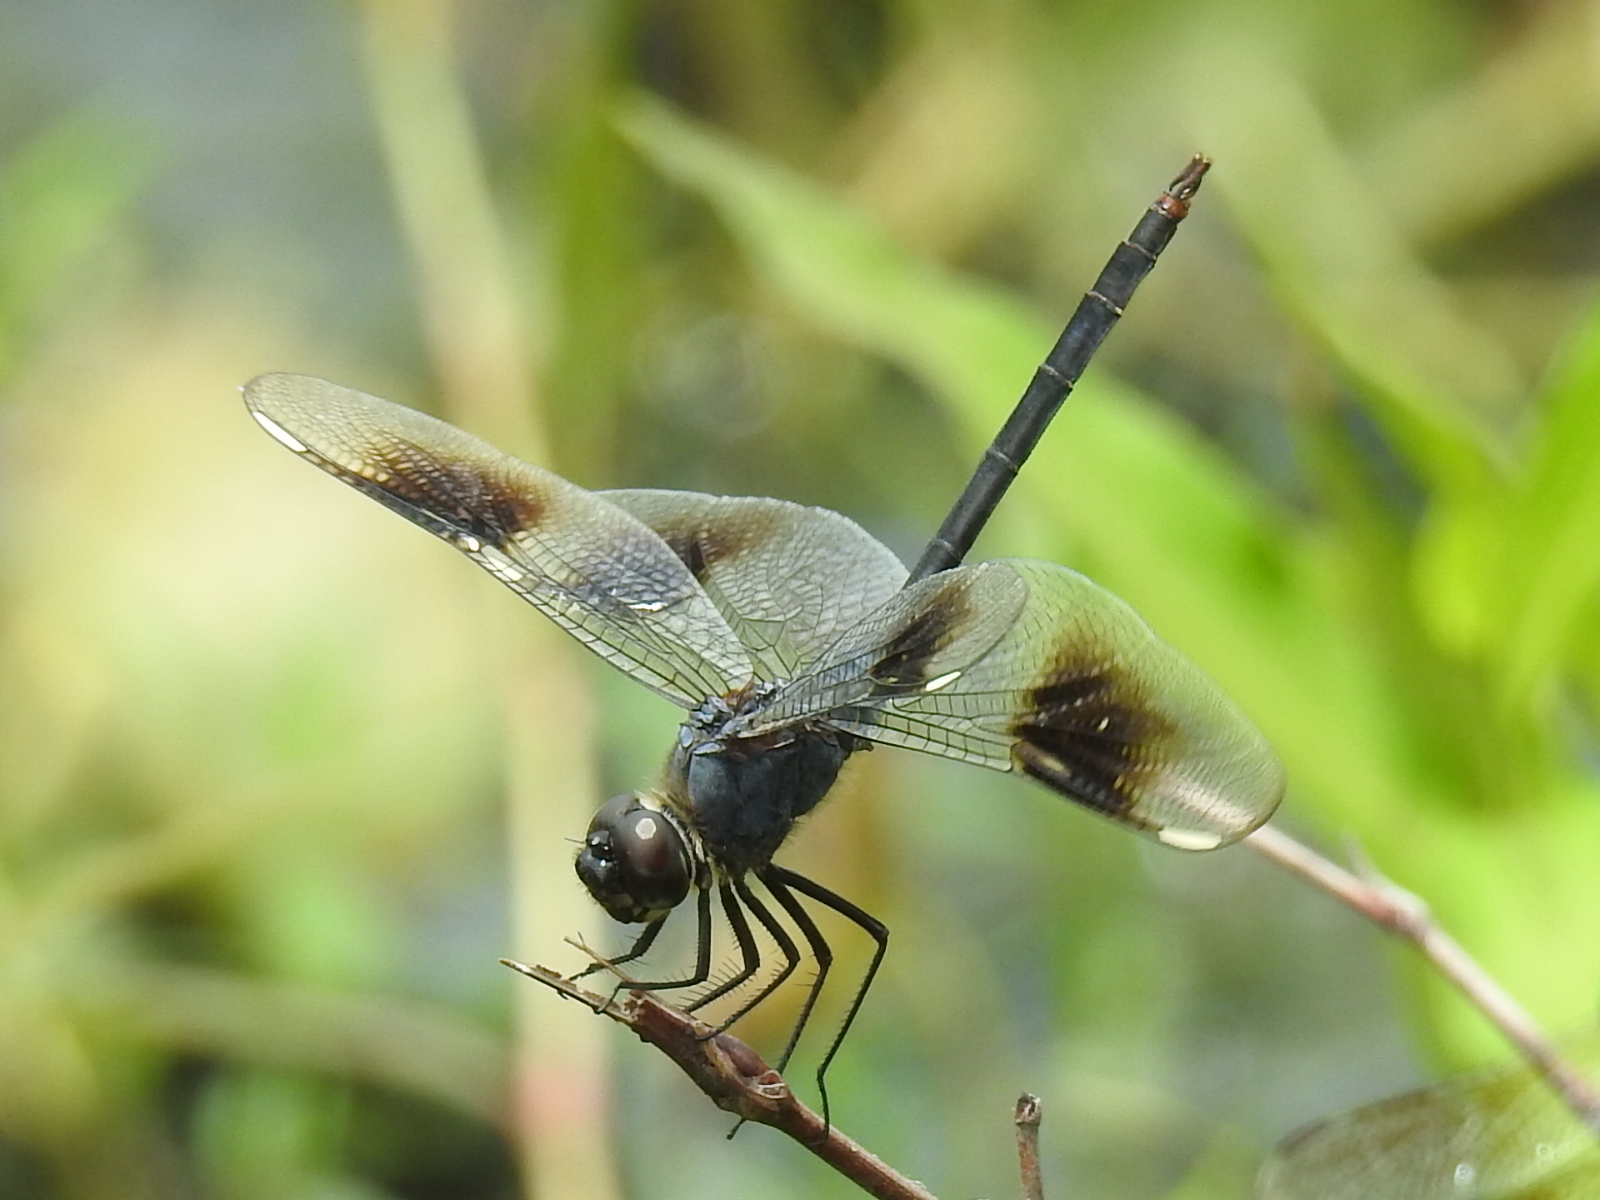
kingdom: Animalia
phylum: Arthropoda
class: Insecta
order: Odonata
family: Libellulidae
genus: Brachymesia
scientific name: Brachymesia gravida
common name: Four-spotted pennant
